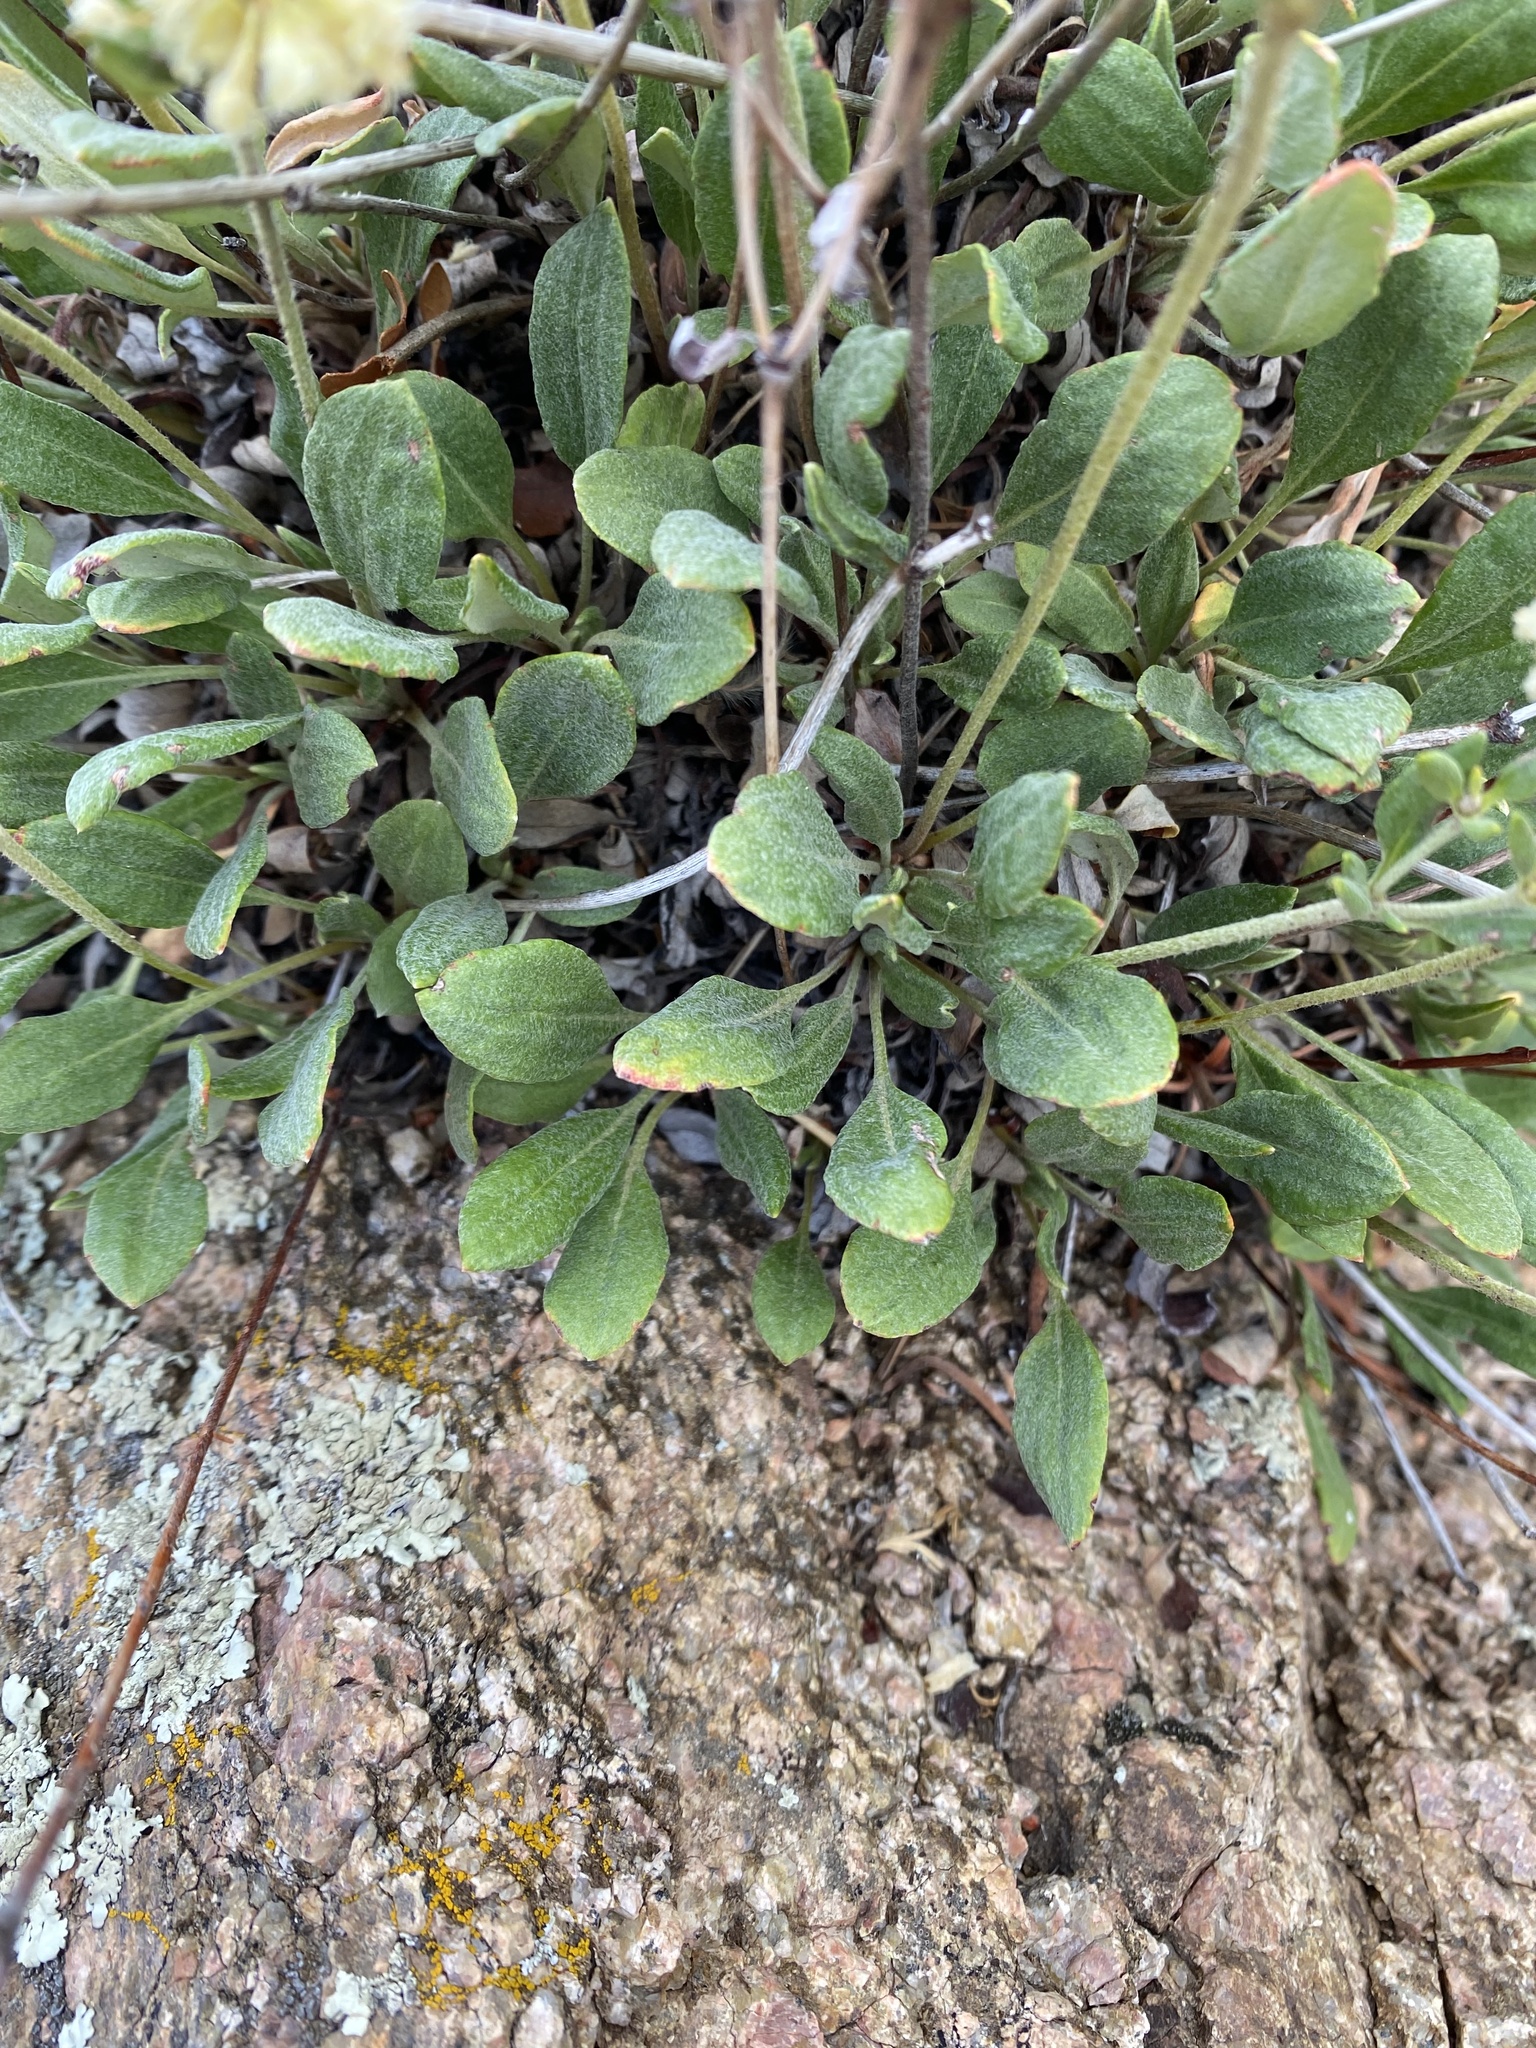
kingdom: Plantae
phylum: Tracheophyta
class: Magnoliopsida
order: Caryophyllales
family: Polygonaceae
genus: Eriogonum
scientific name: Eriogonum jamesii
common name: Antelope-sage
